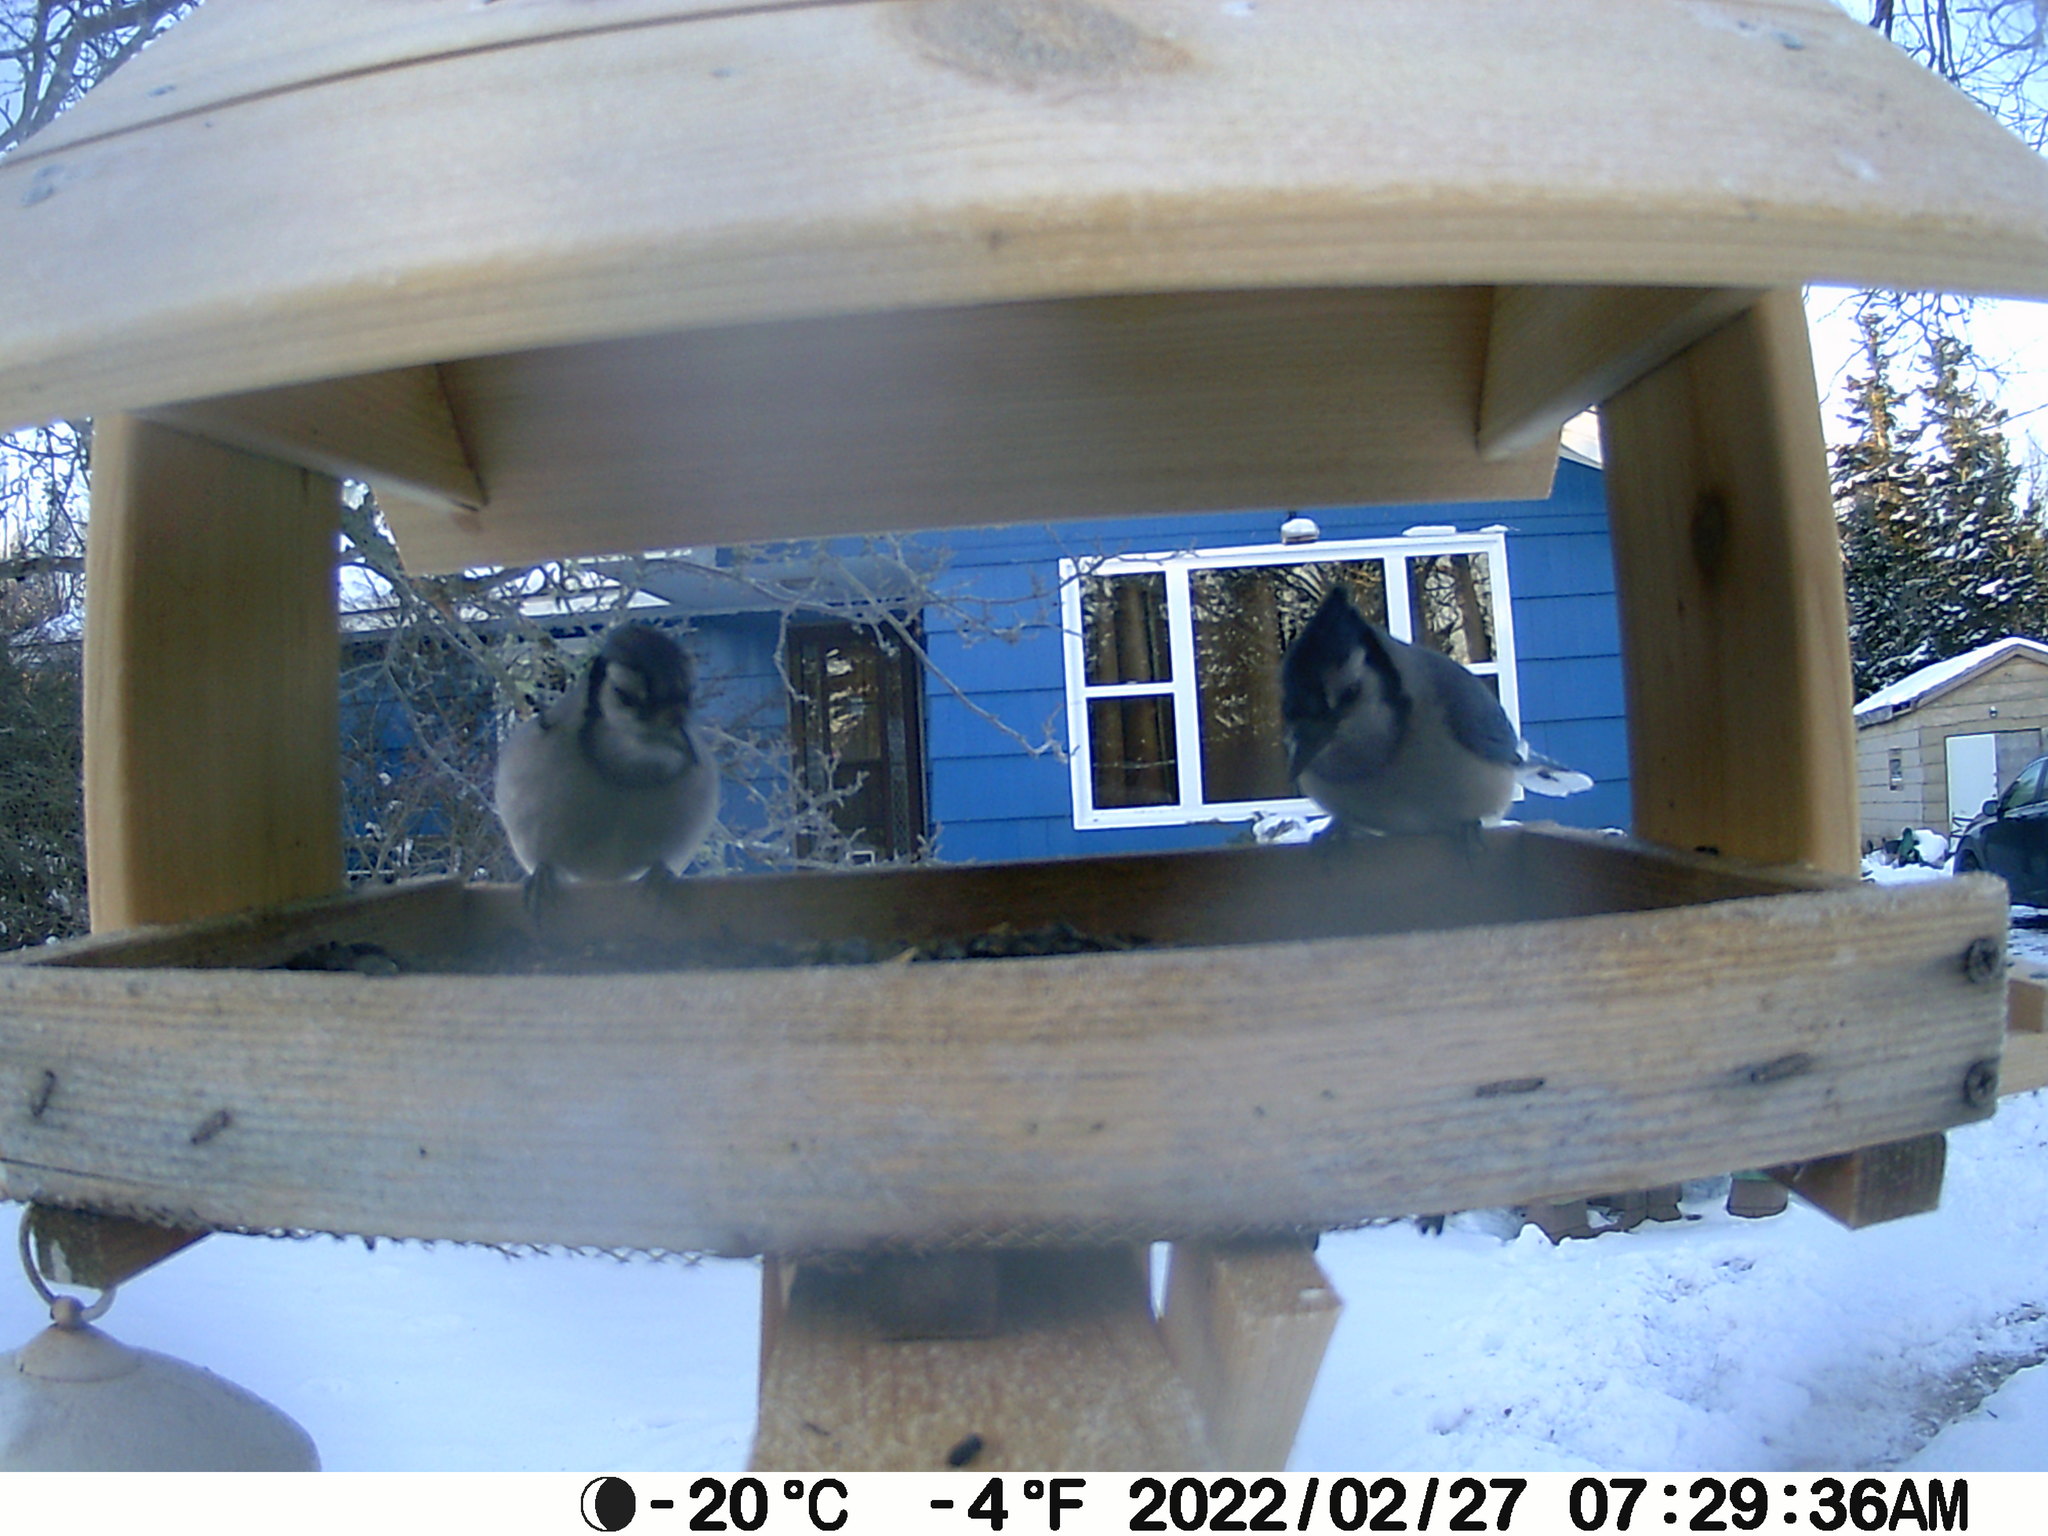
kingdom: Animalia
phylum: Chordata
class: Aves
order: Passeriformes
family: Corvidae
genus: Cyanocitta
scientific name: Cyanocitta cristata
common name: Blue jay
